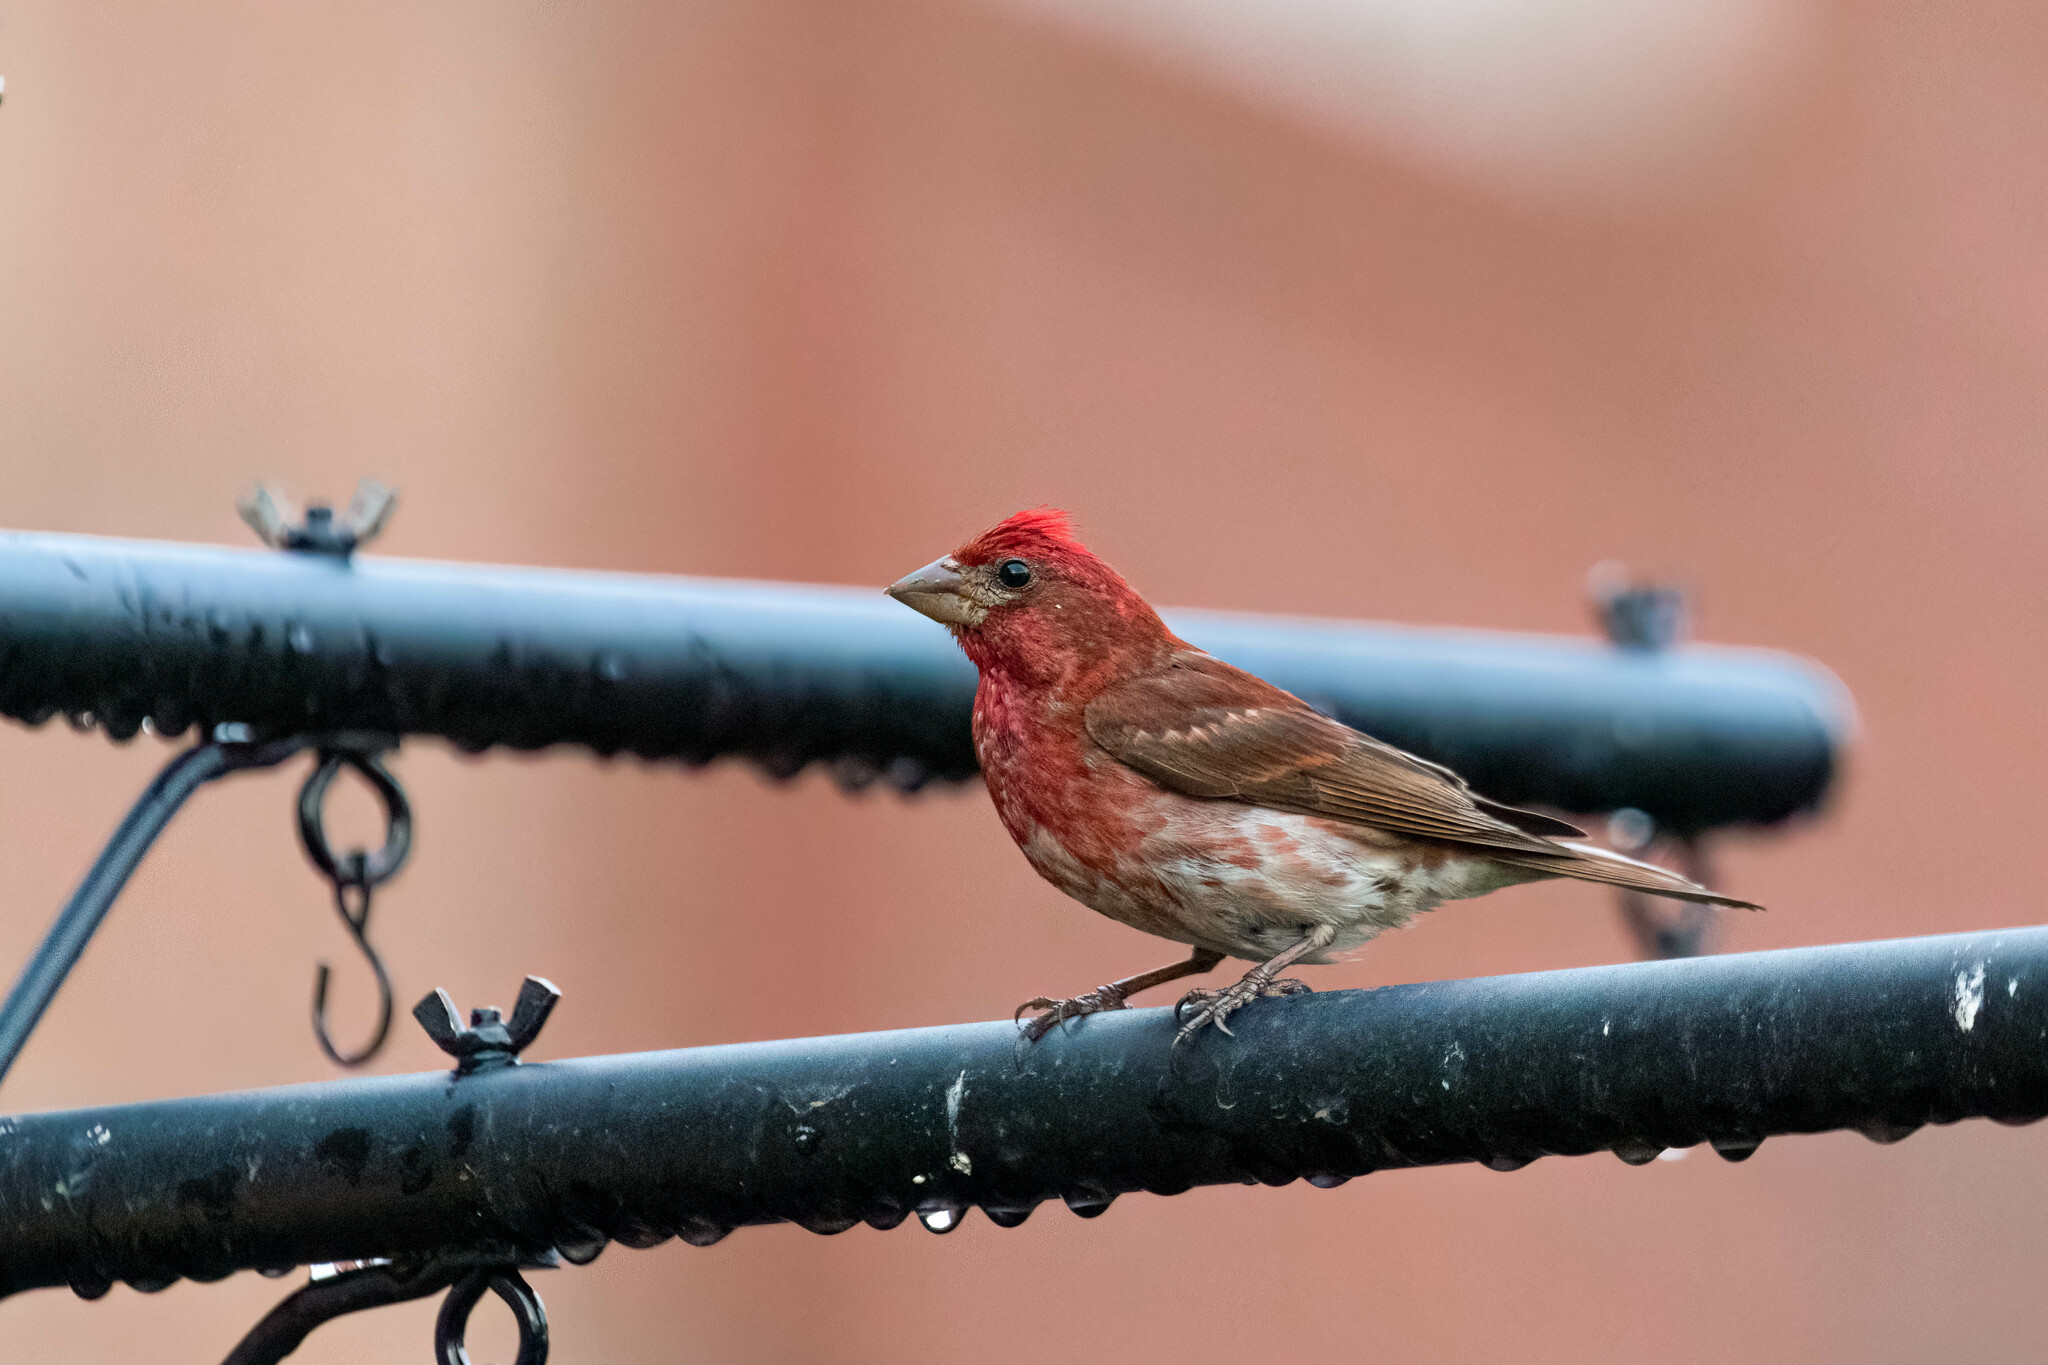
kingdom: Animalia
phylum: Chordata
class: Aves
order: Passeriformes
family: Fringillidae
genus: Haemorhous
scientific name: Haemorhous purpureus
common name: Purple finch
